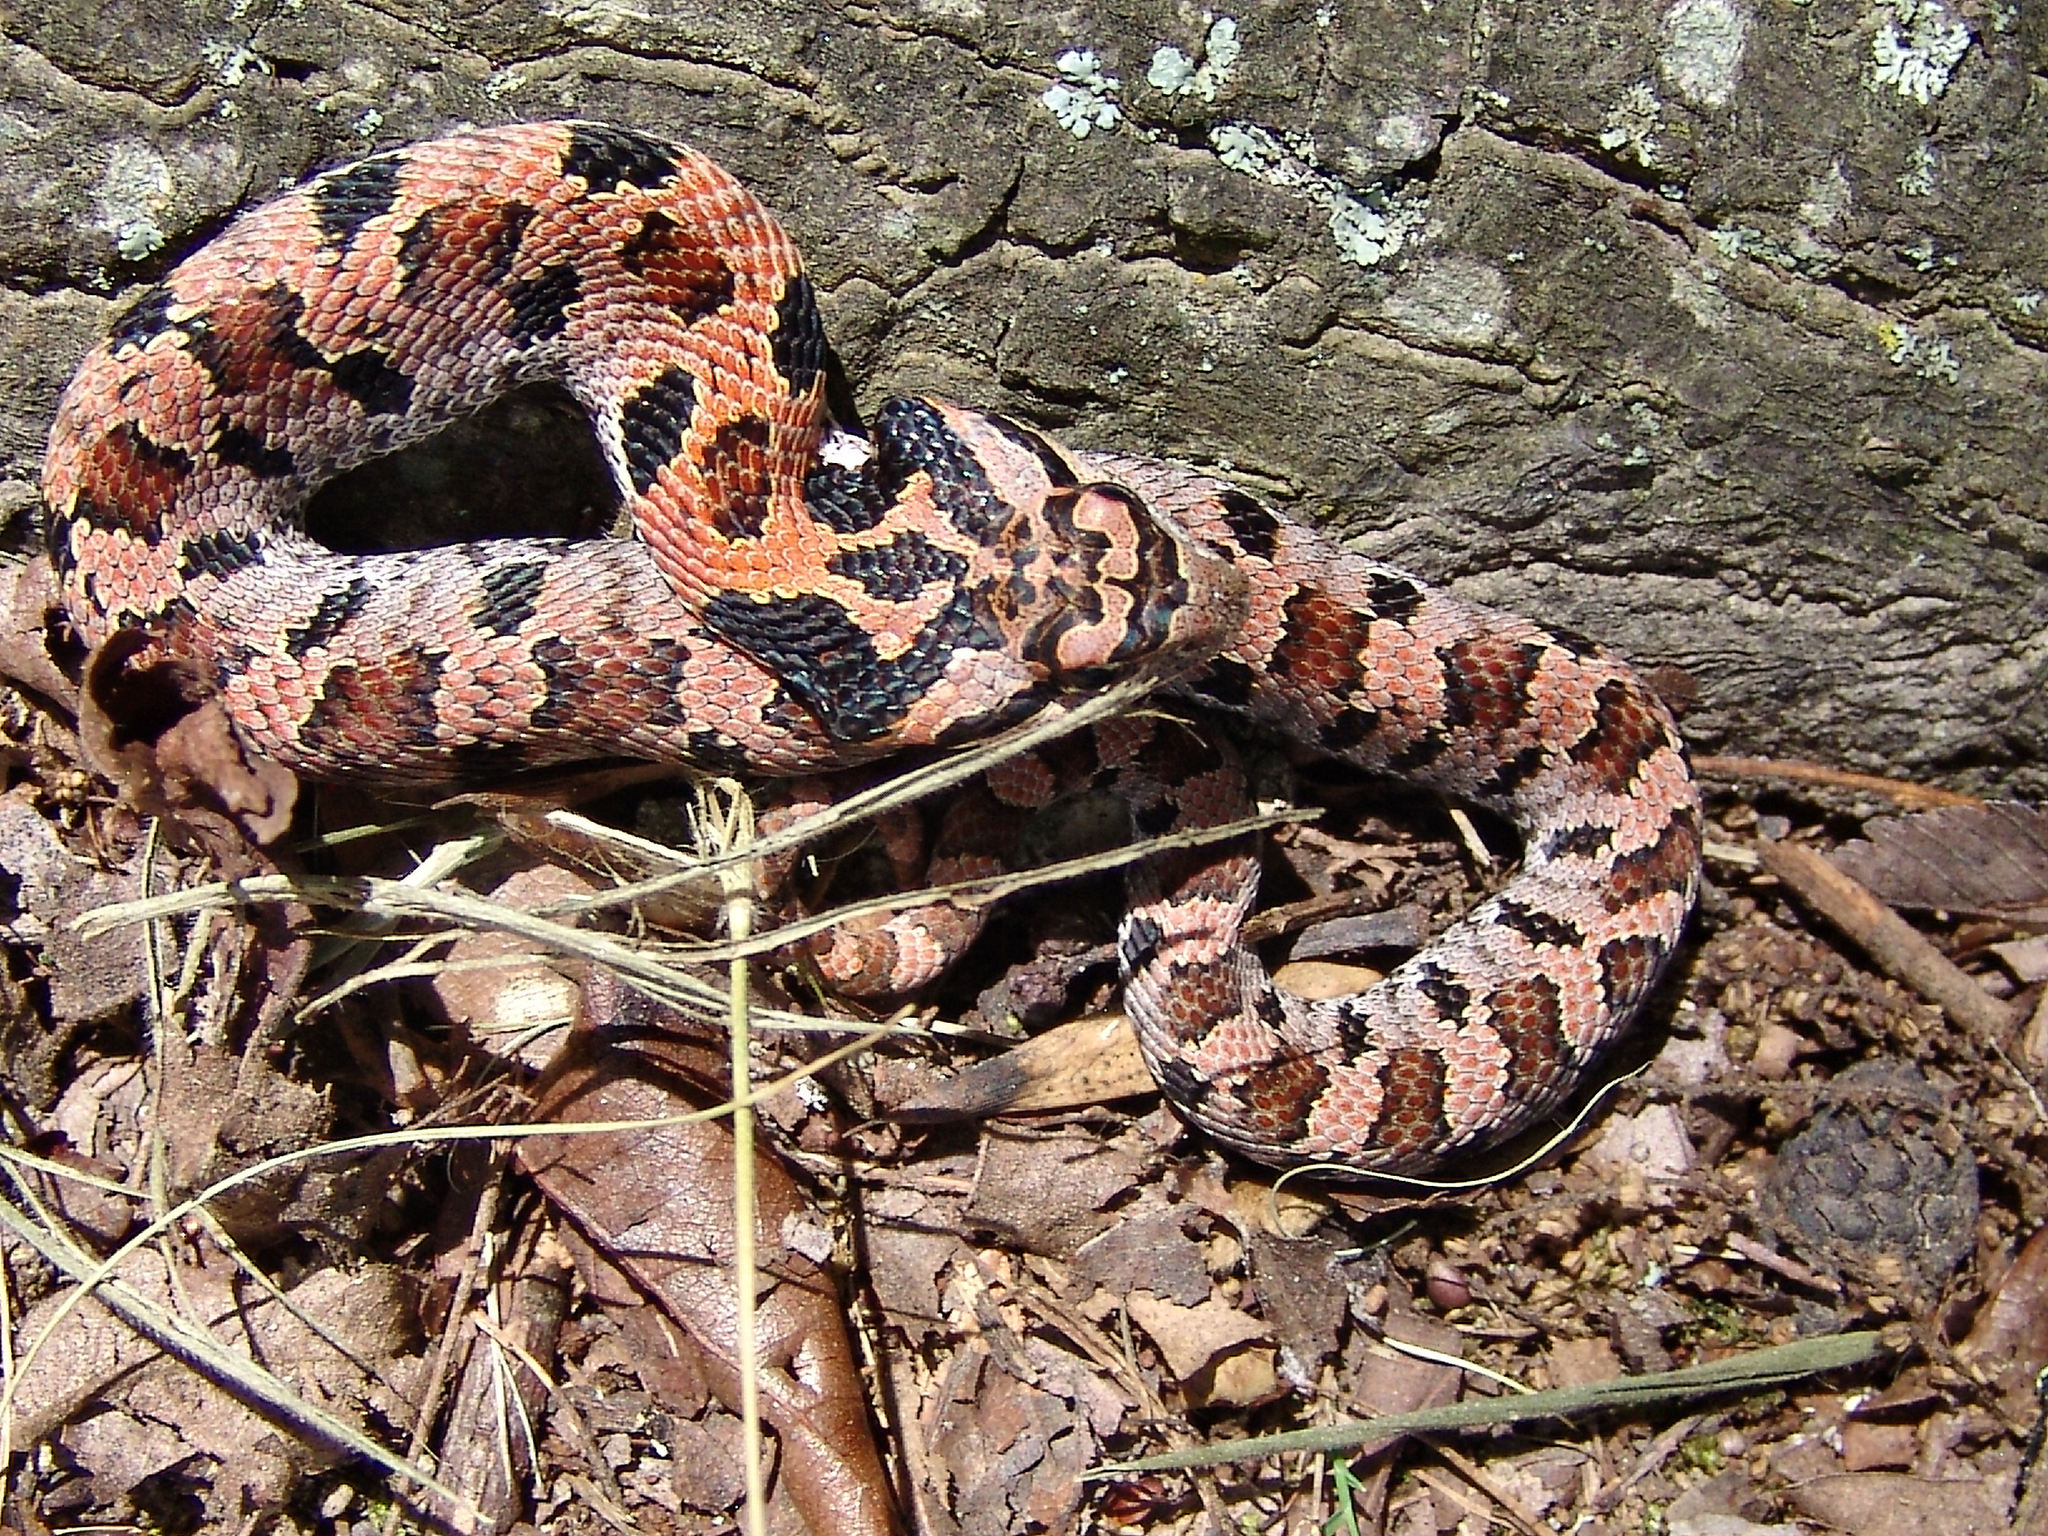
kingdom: Animalia
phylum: Chordata
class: Squamata
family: Colubridae
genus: Heterodon
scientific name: Heterodon platirhinos
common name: Eastern hognose snake
